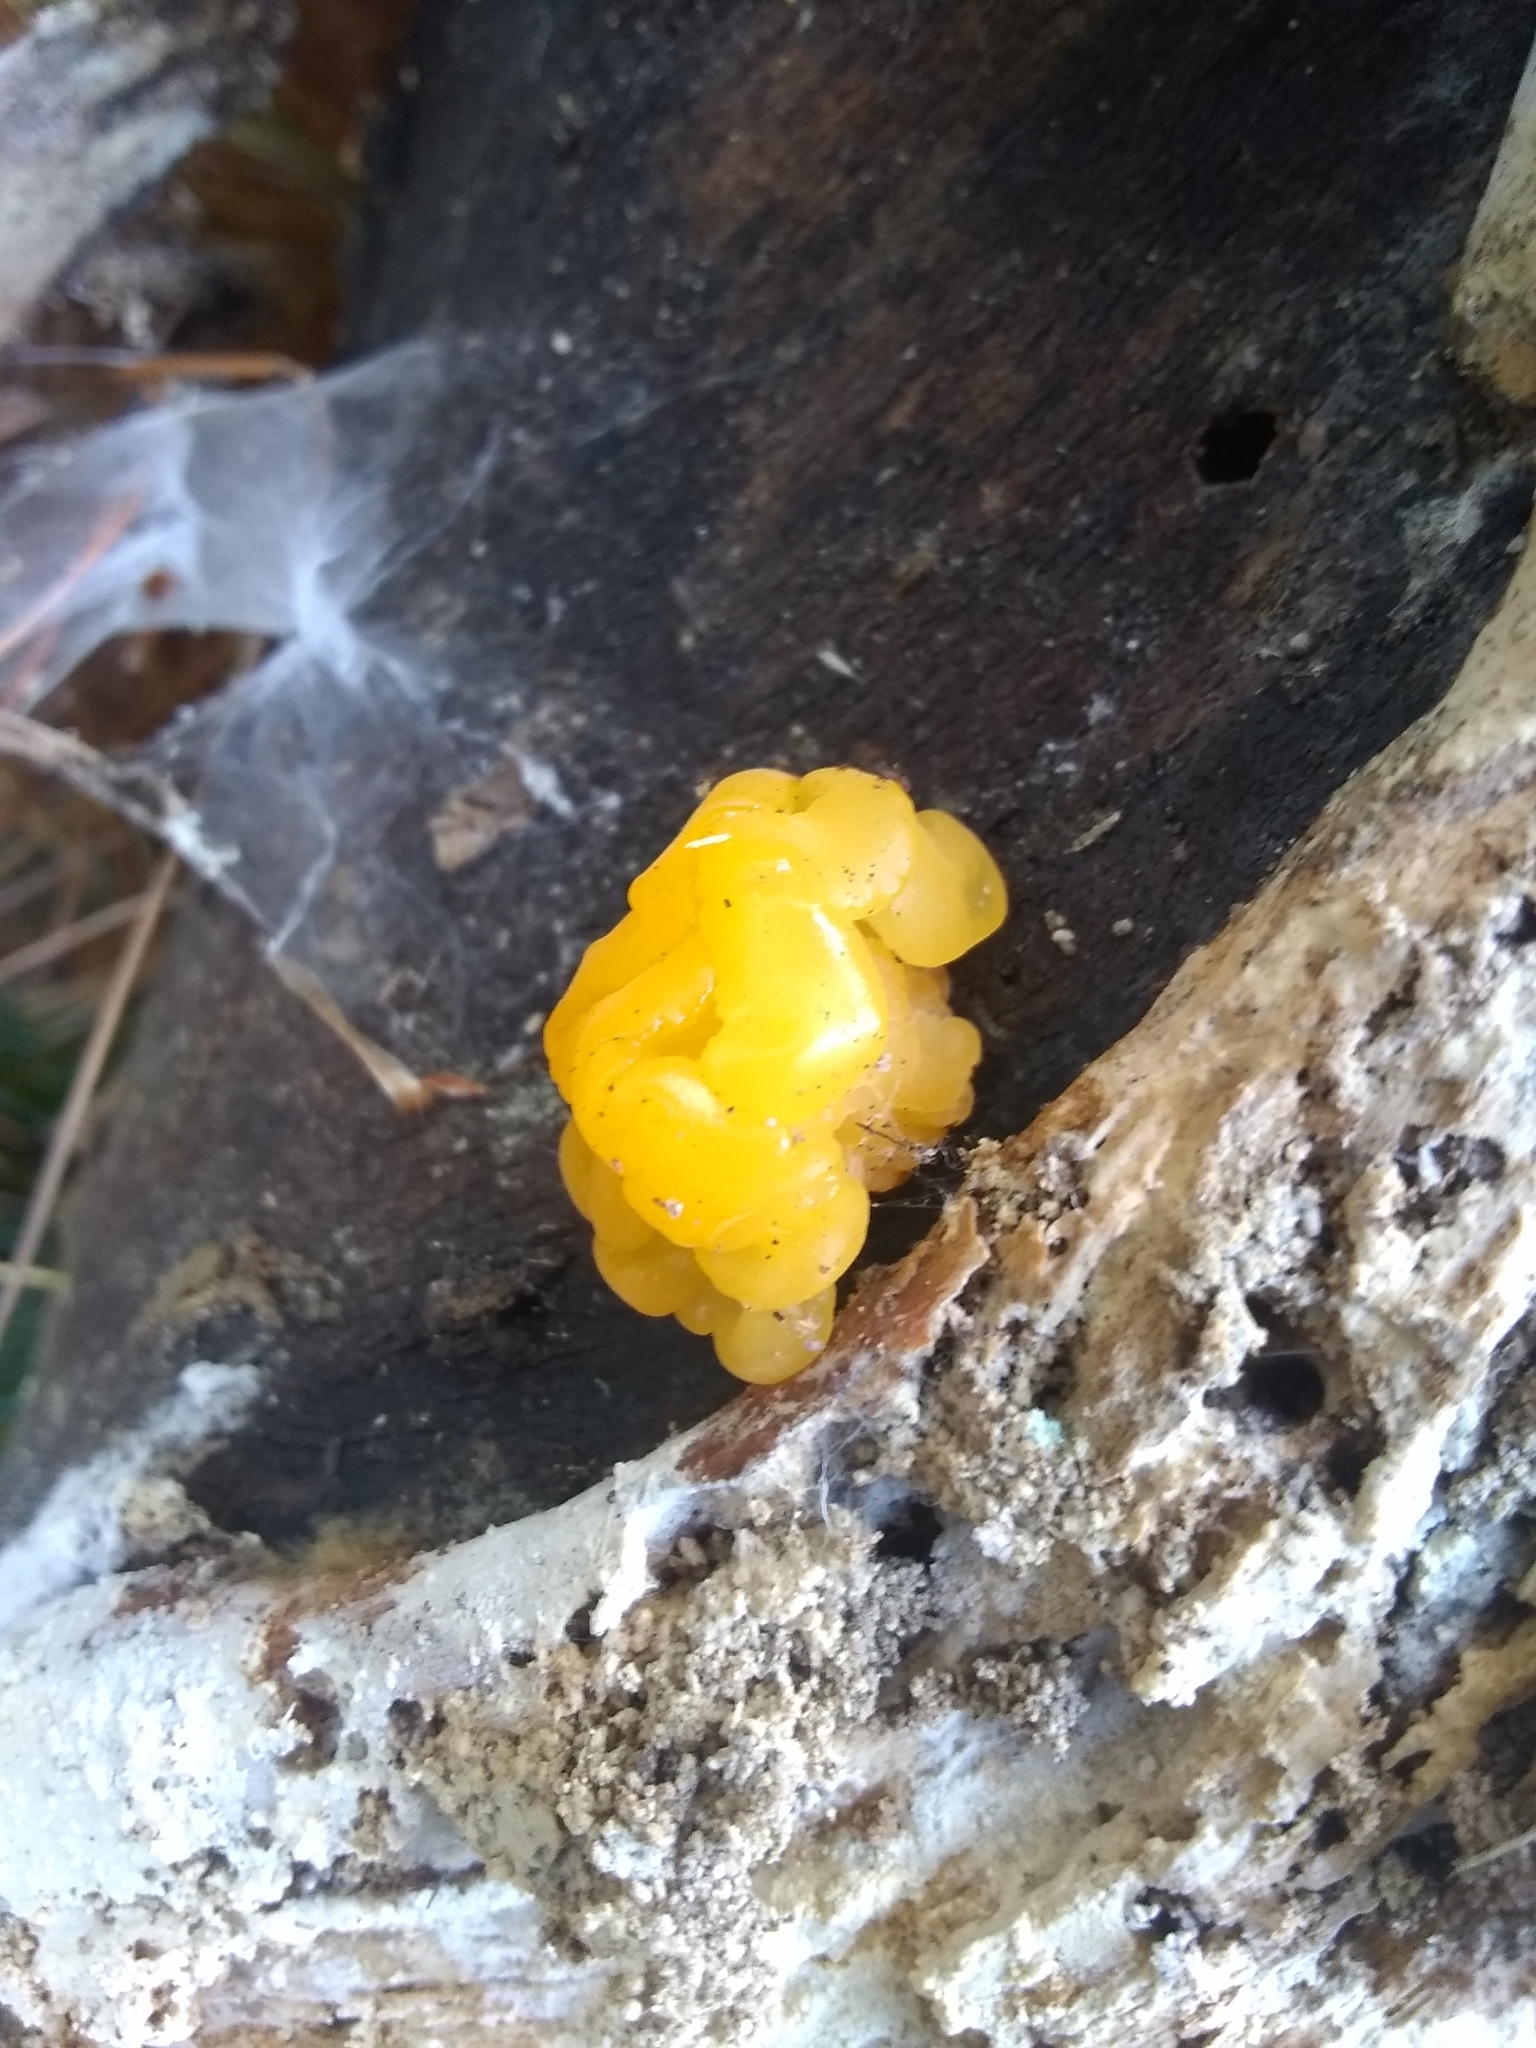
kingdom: Fungi
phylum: Basidiomycota
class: Dacrymycetes
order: Dacrymycetales
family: Dacrymycetaceae
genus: Dacrymyces
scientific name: Dacrymyces chrysospermus
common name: Orange jelly spot
